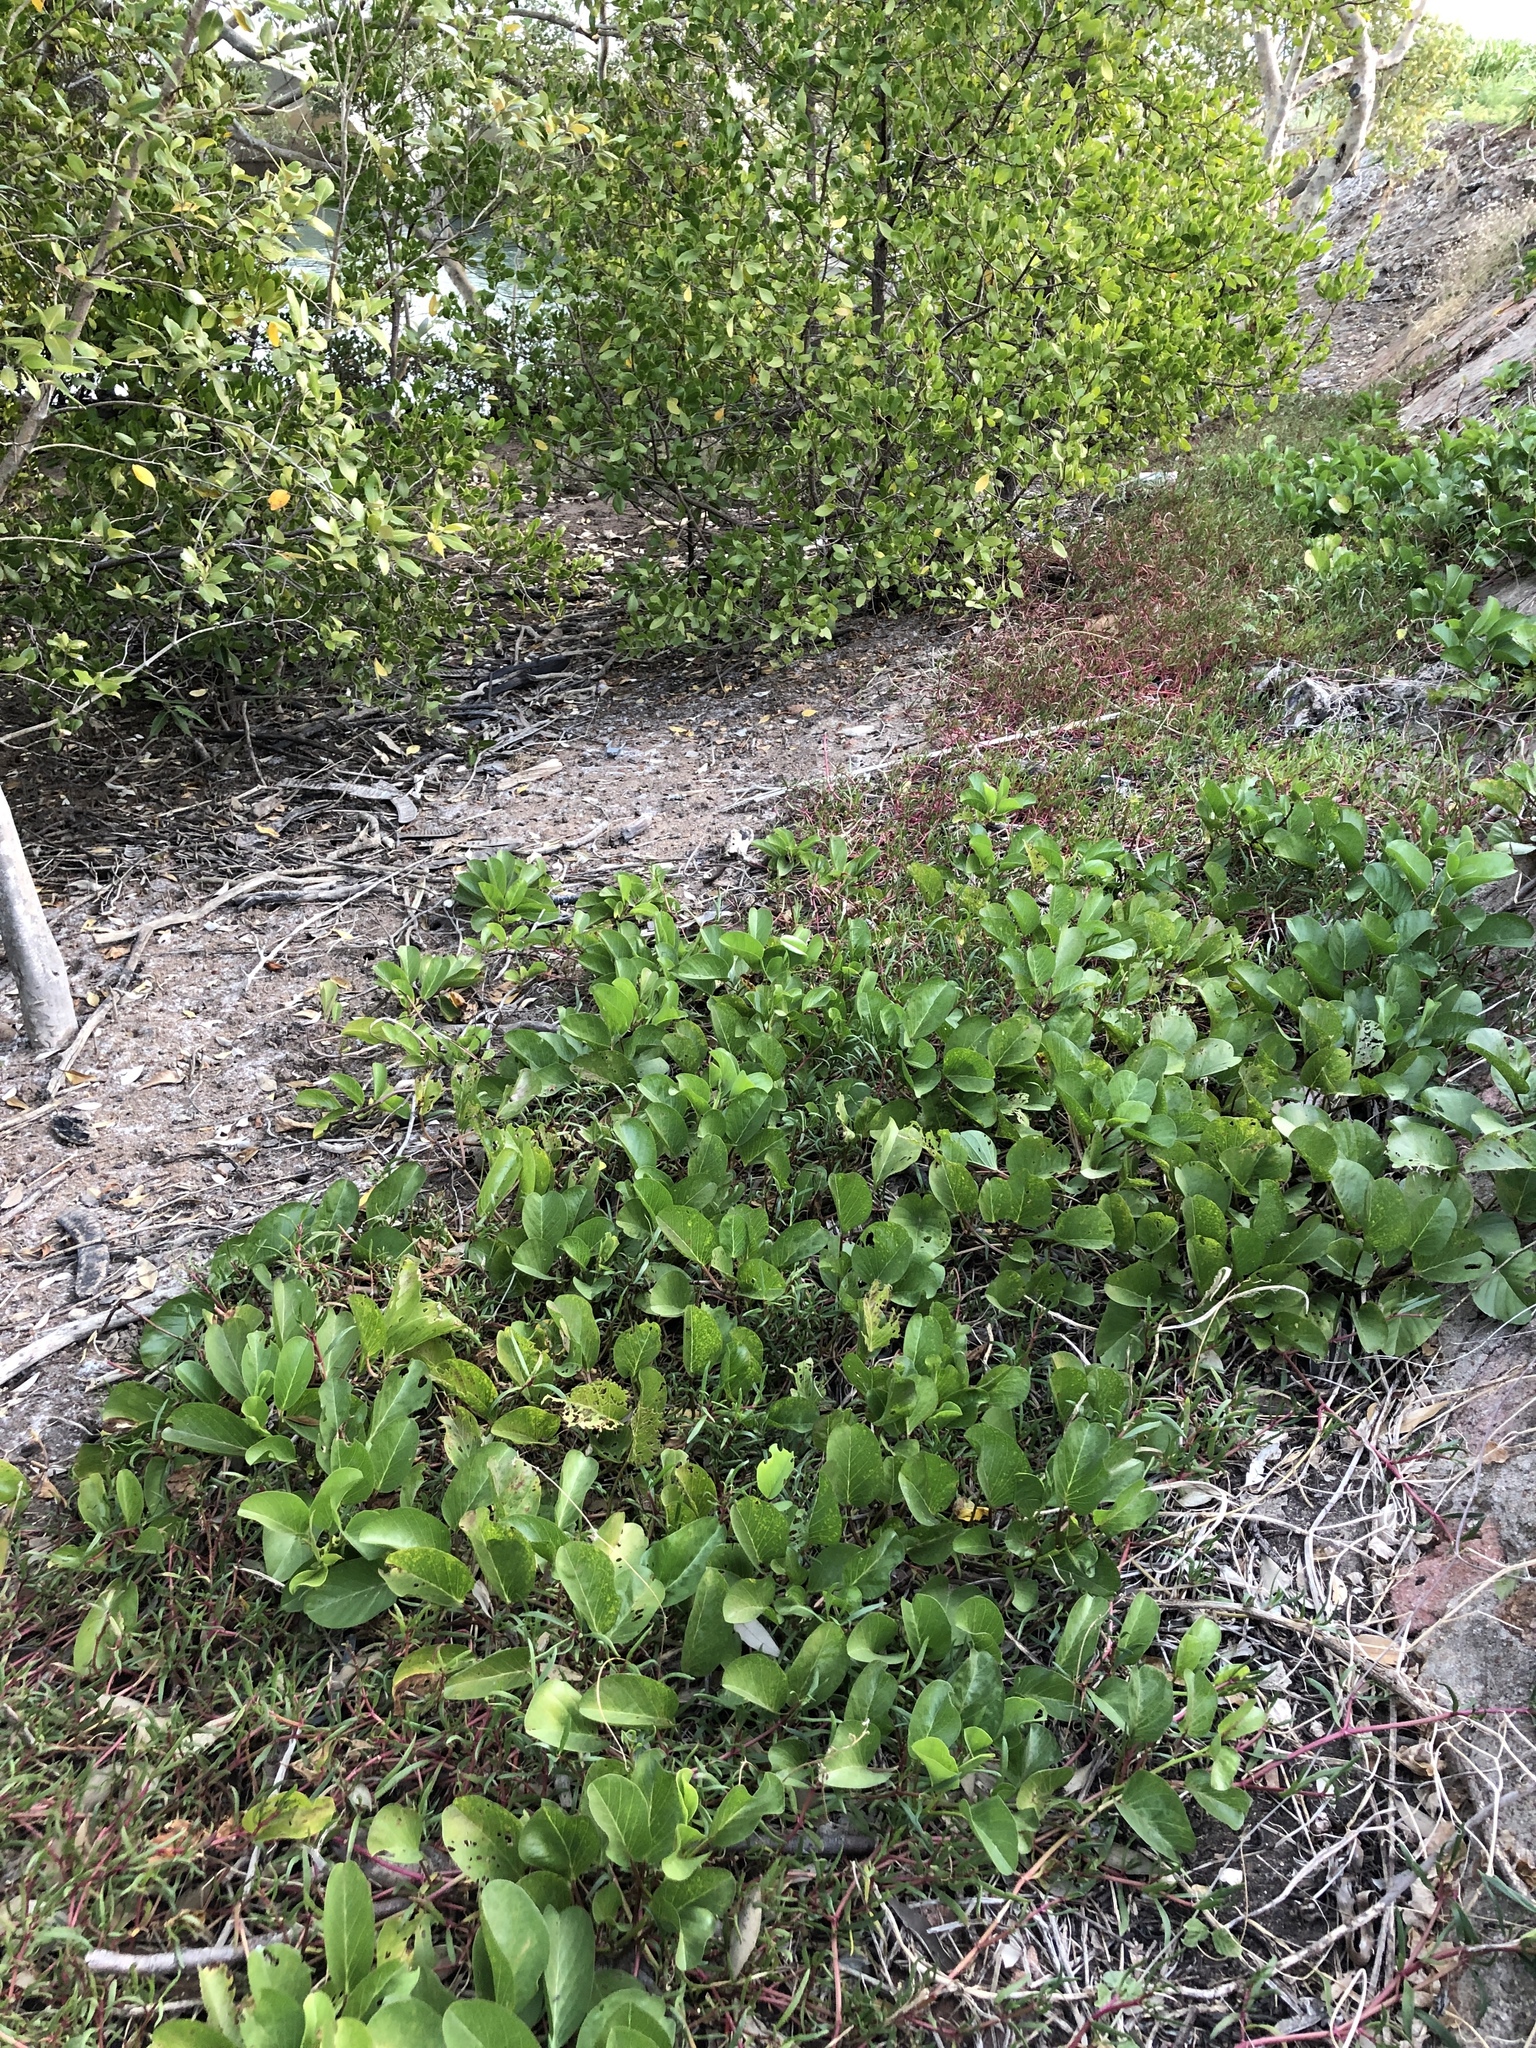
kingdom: Plantae
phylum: Tracheophyta
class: Magnoliopsida
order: Solanales
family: Convolvulaceae
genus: Ipomoea
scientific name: Ipomoea pes-caprae
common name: Beach morning glory
